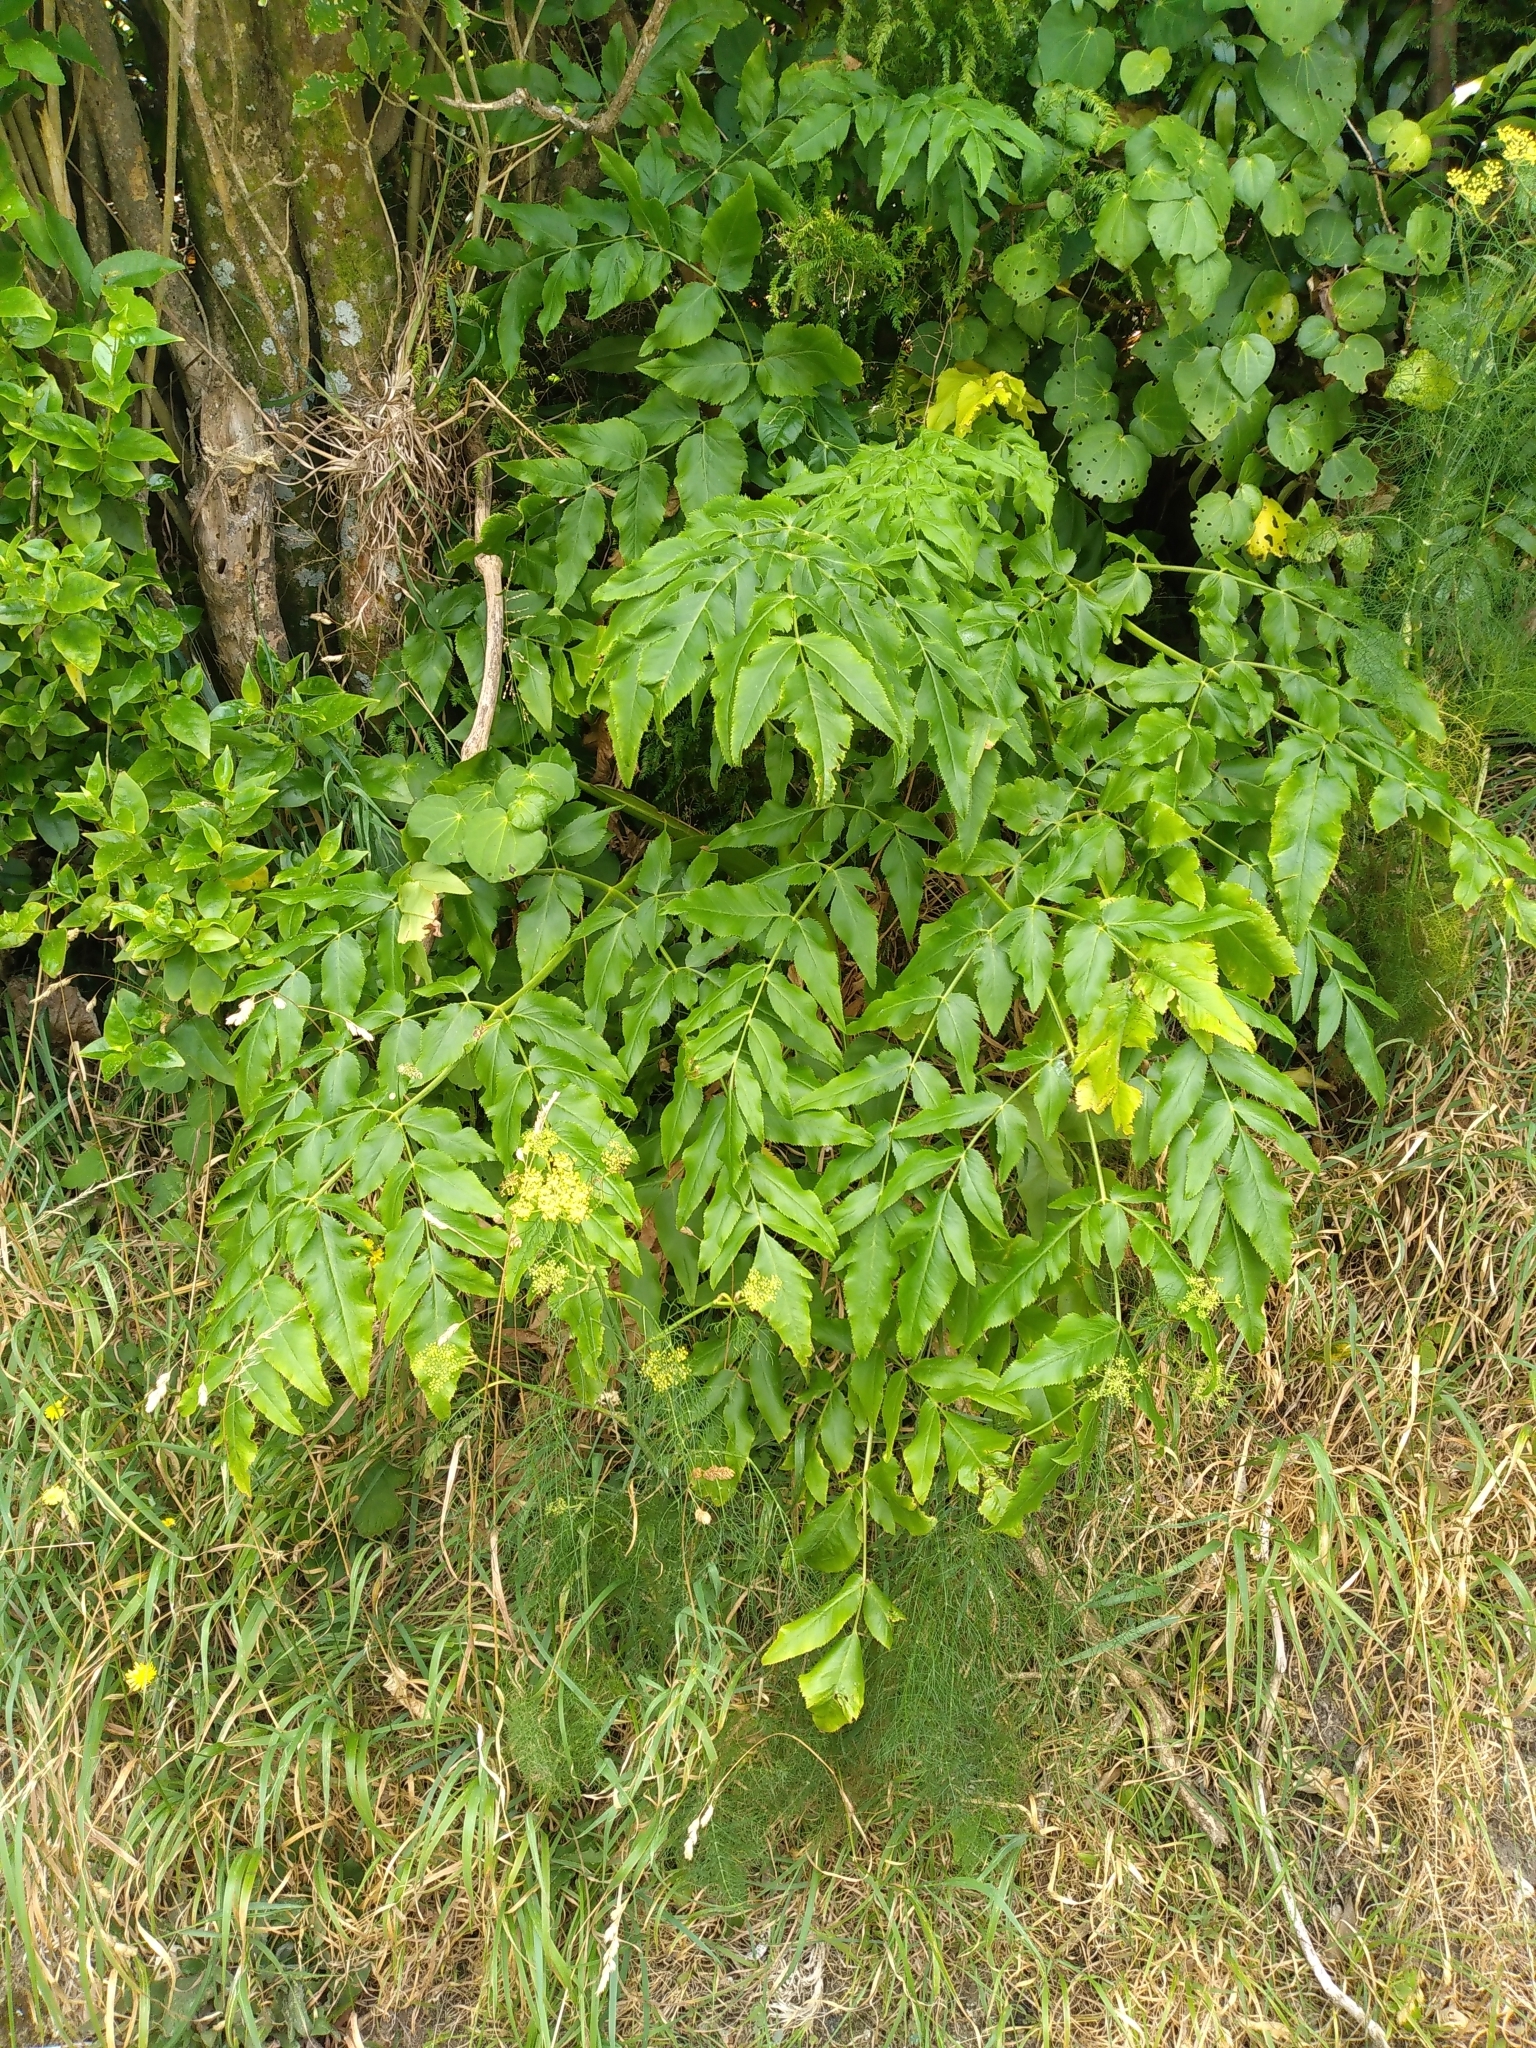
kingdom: Plantae
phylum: Tracheophyta
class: Magnoliopsida
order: Apiales
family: Apiaceae
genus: Daucus
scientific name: Daucus decipiens
